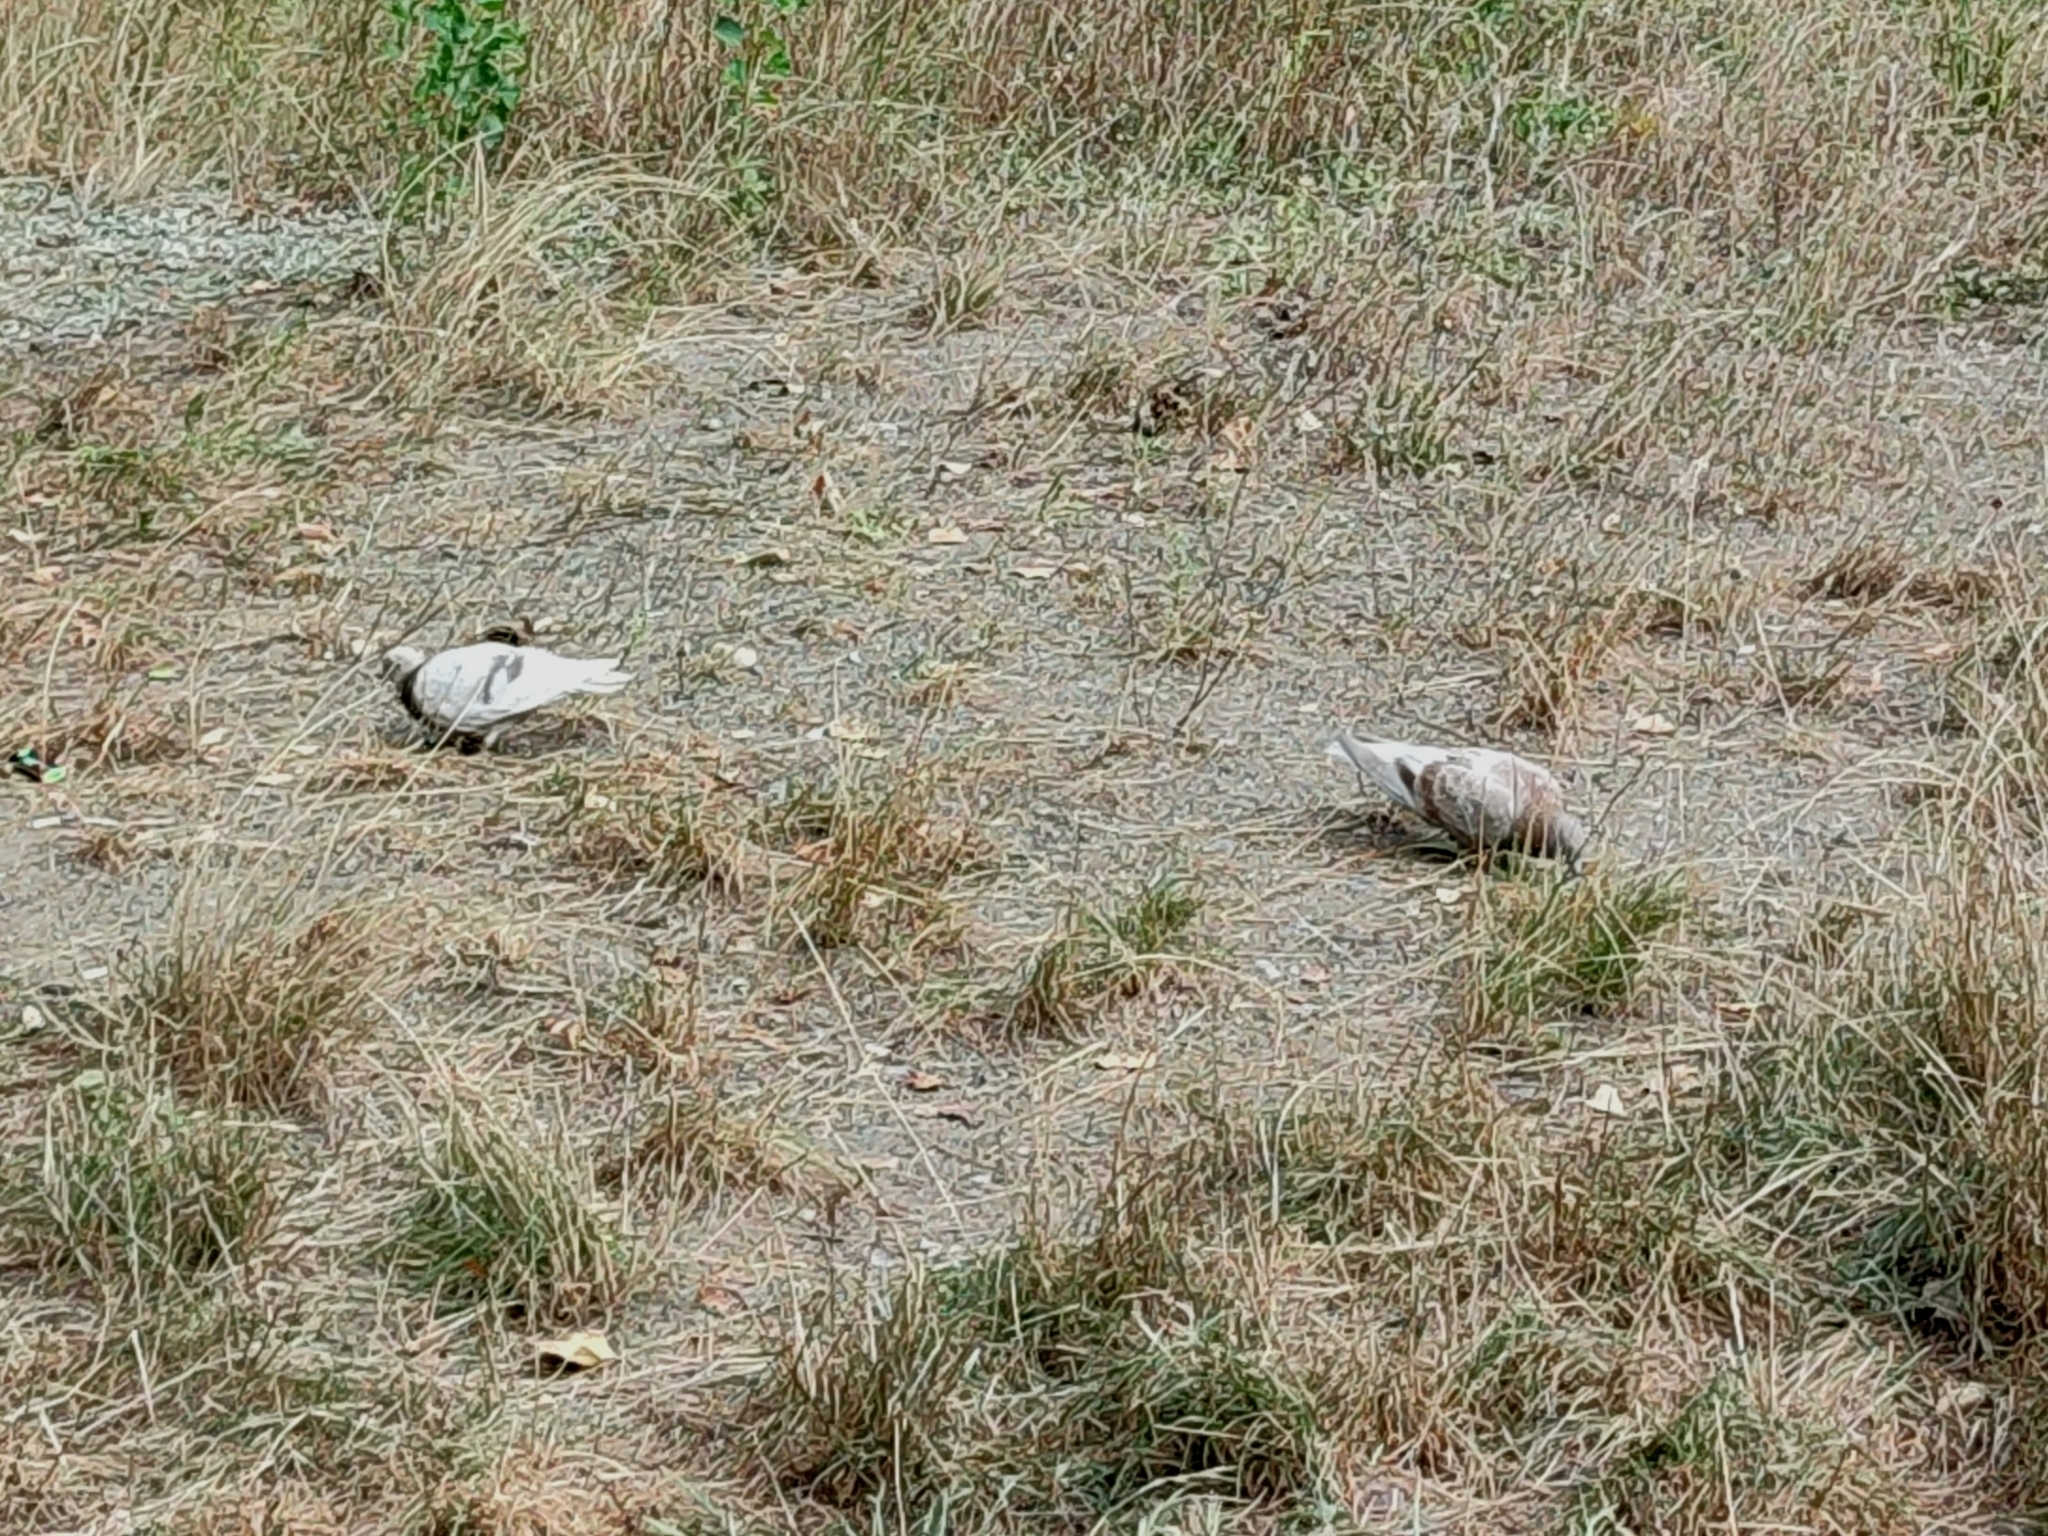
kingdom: Animalia
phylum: Chordata
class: Aves
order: Columbiformes
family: Columbidae
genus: Columba
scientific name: Columba livia
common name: Rock pigeon
